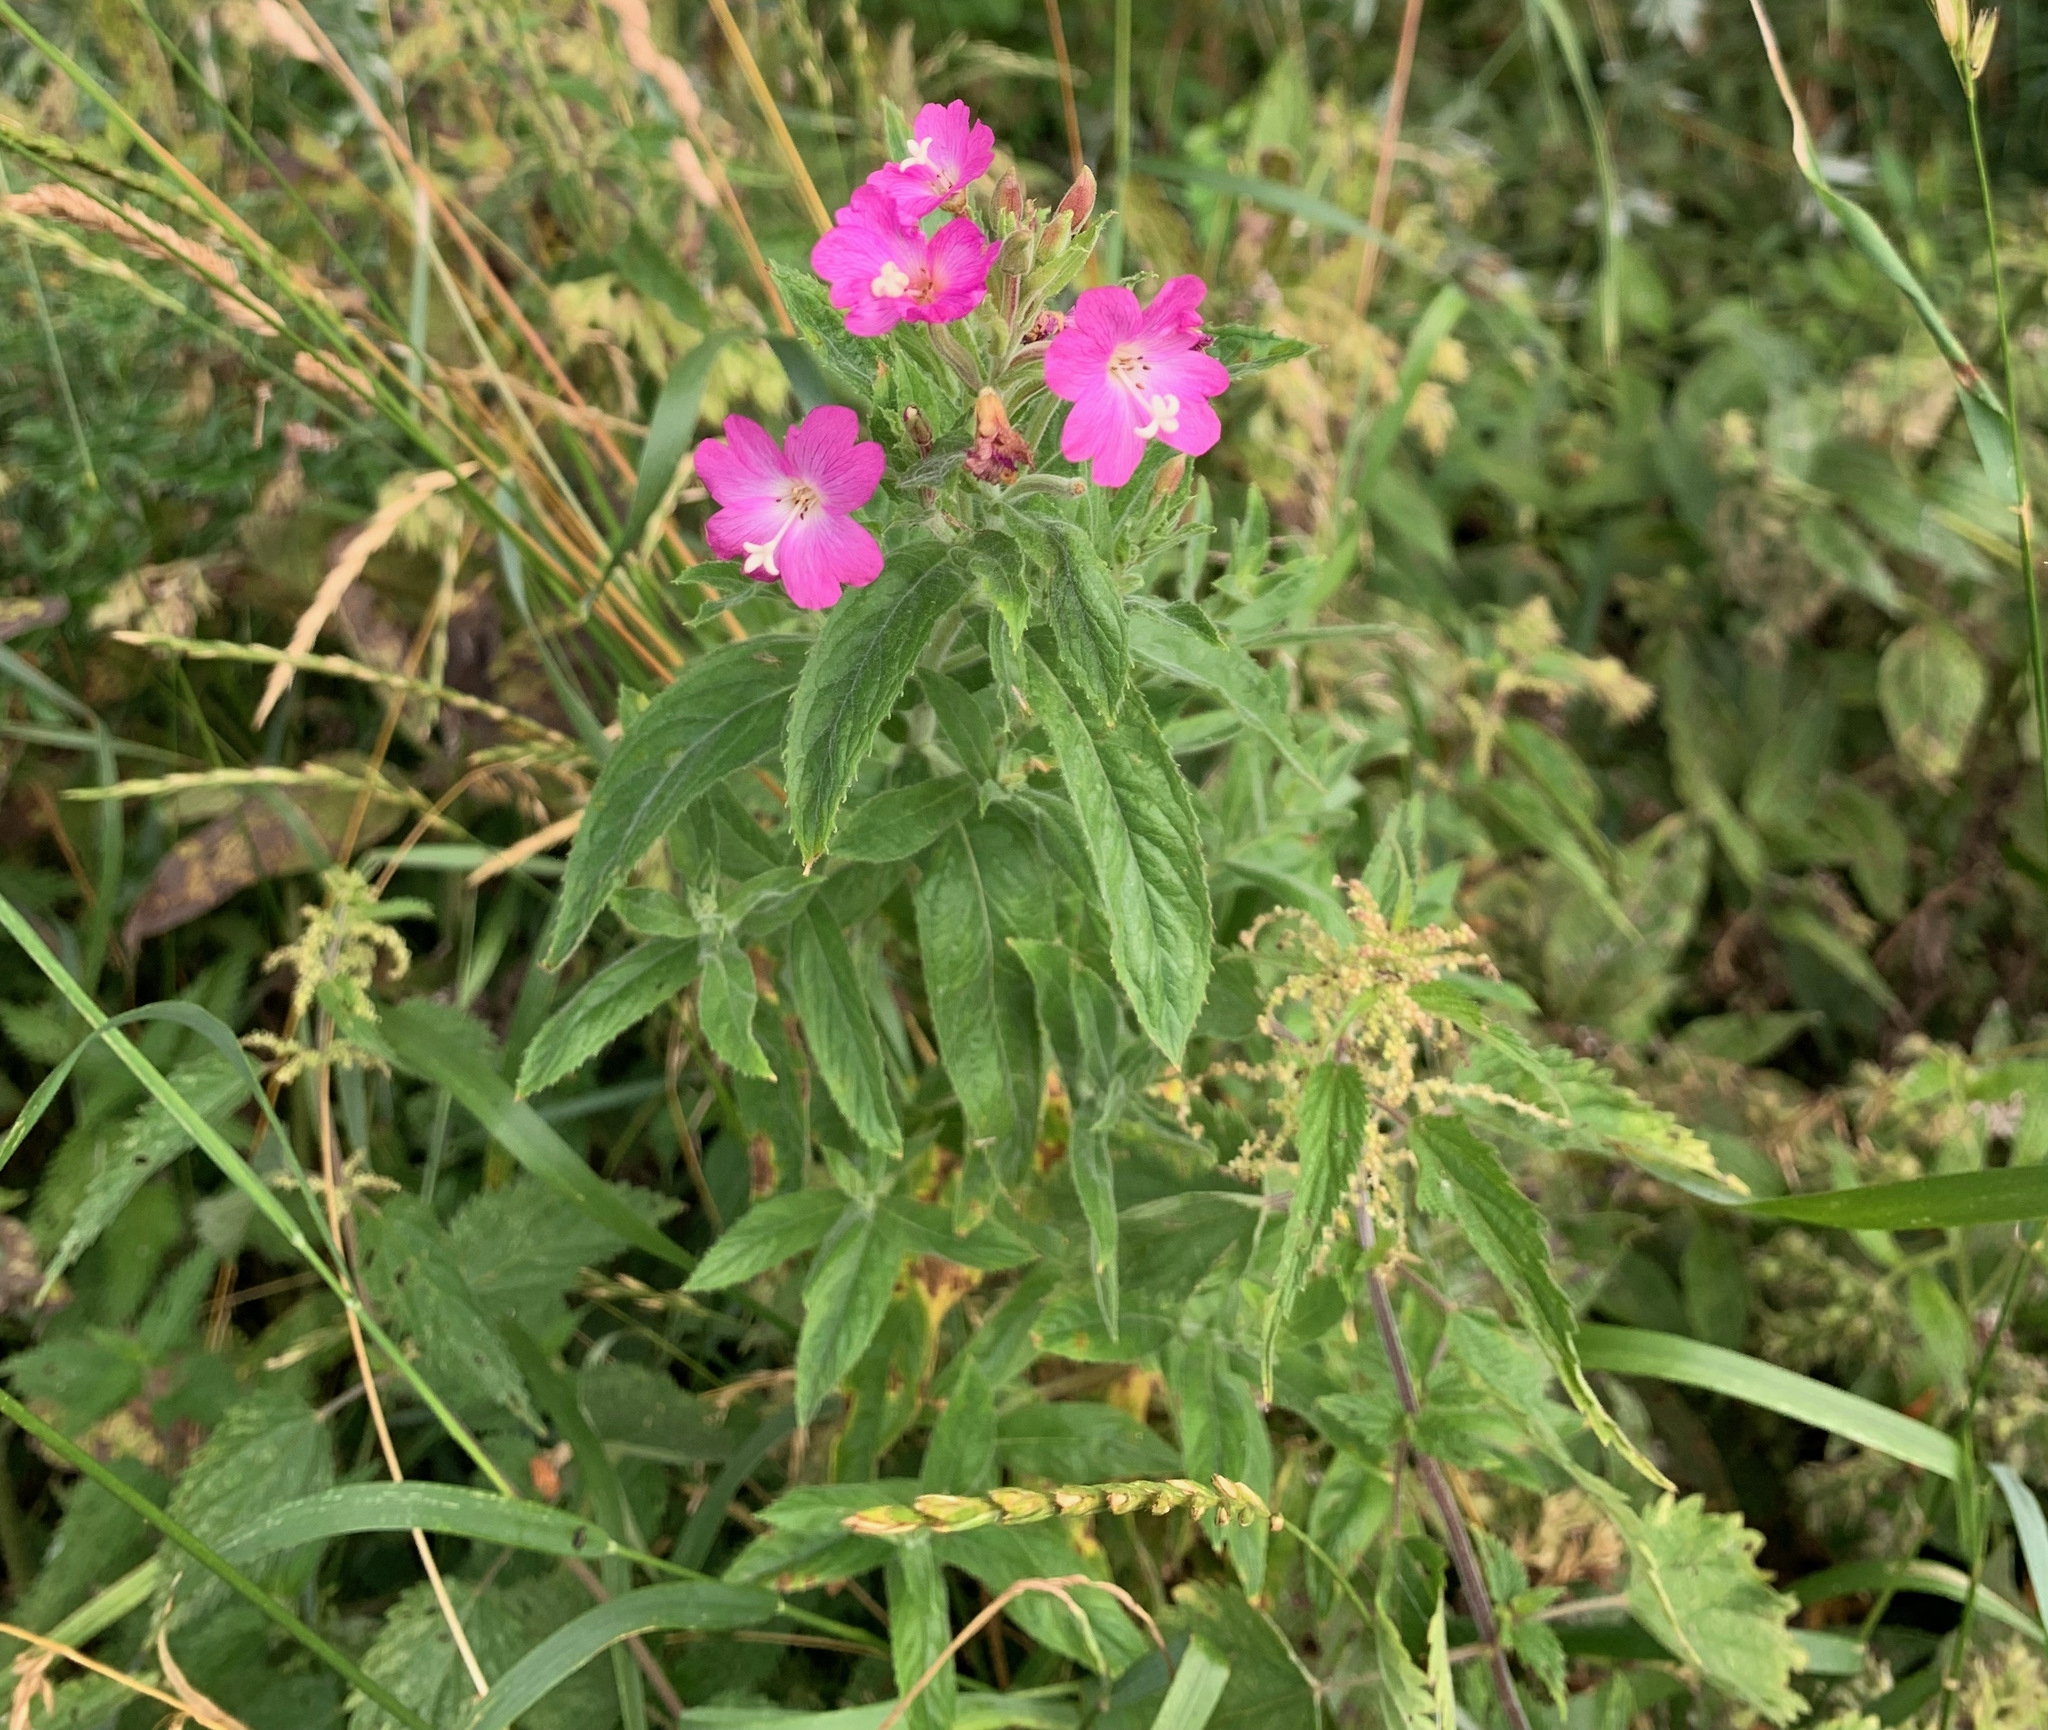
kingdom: Plantae
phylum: Tracheophyta
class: Magnoliopsida
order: Myrtales
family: Onagraceae
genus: Epilobium
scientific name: Epilobium hirsutum
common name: Great willowherb
